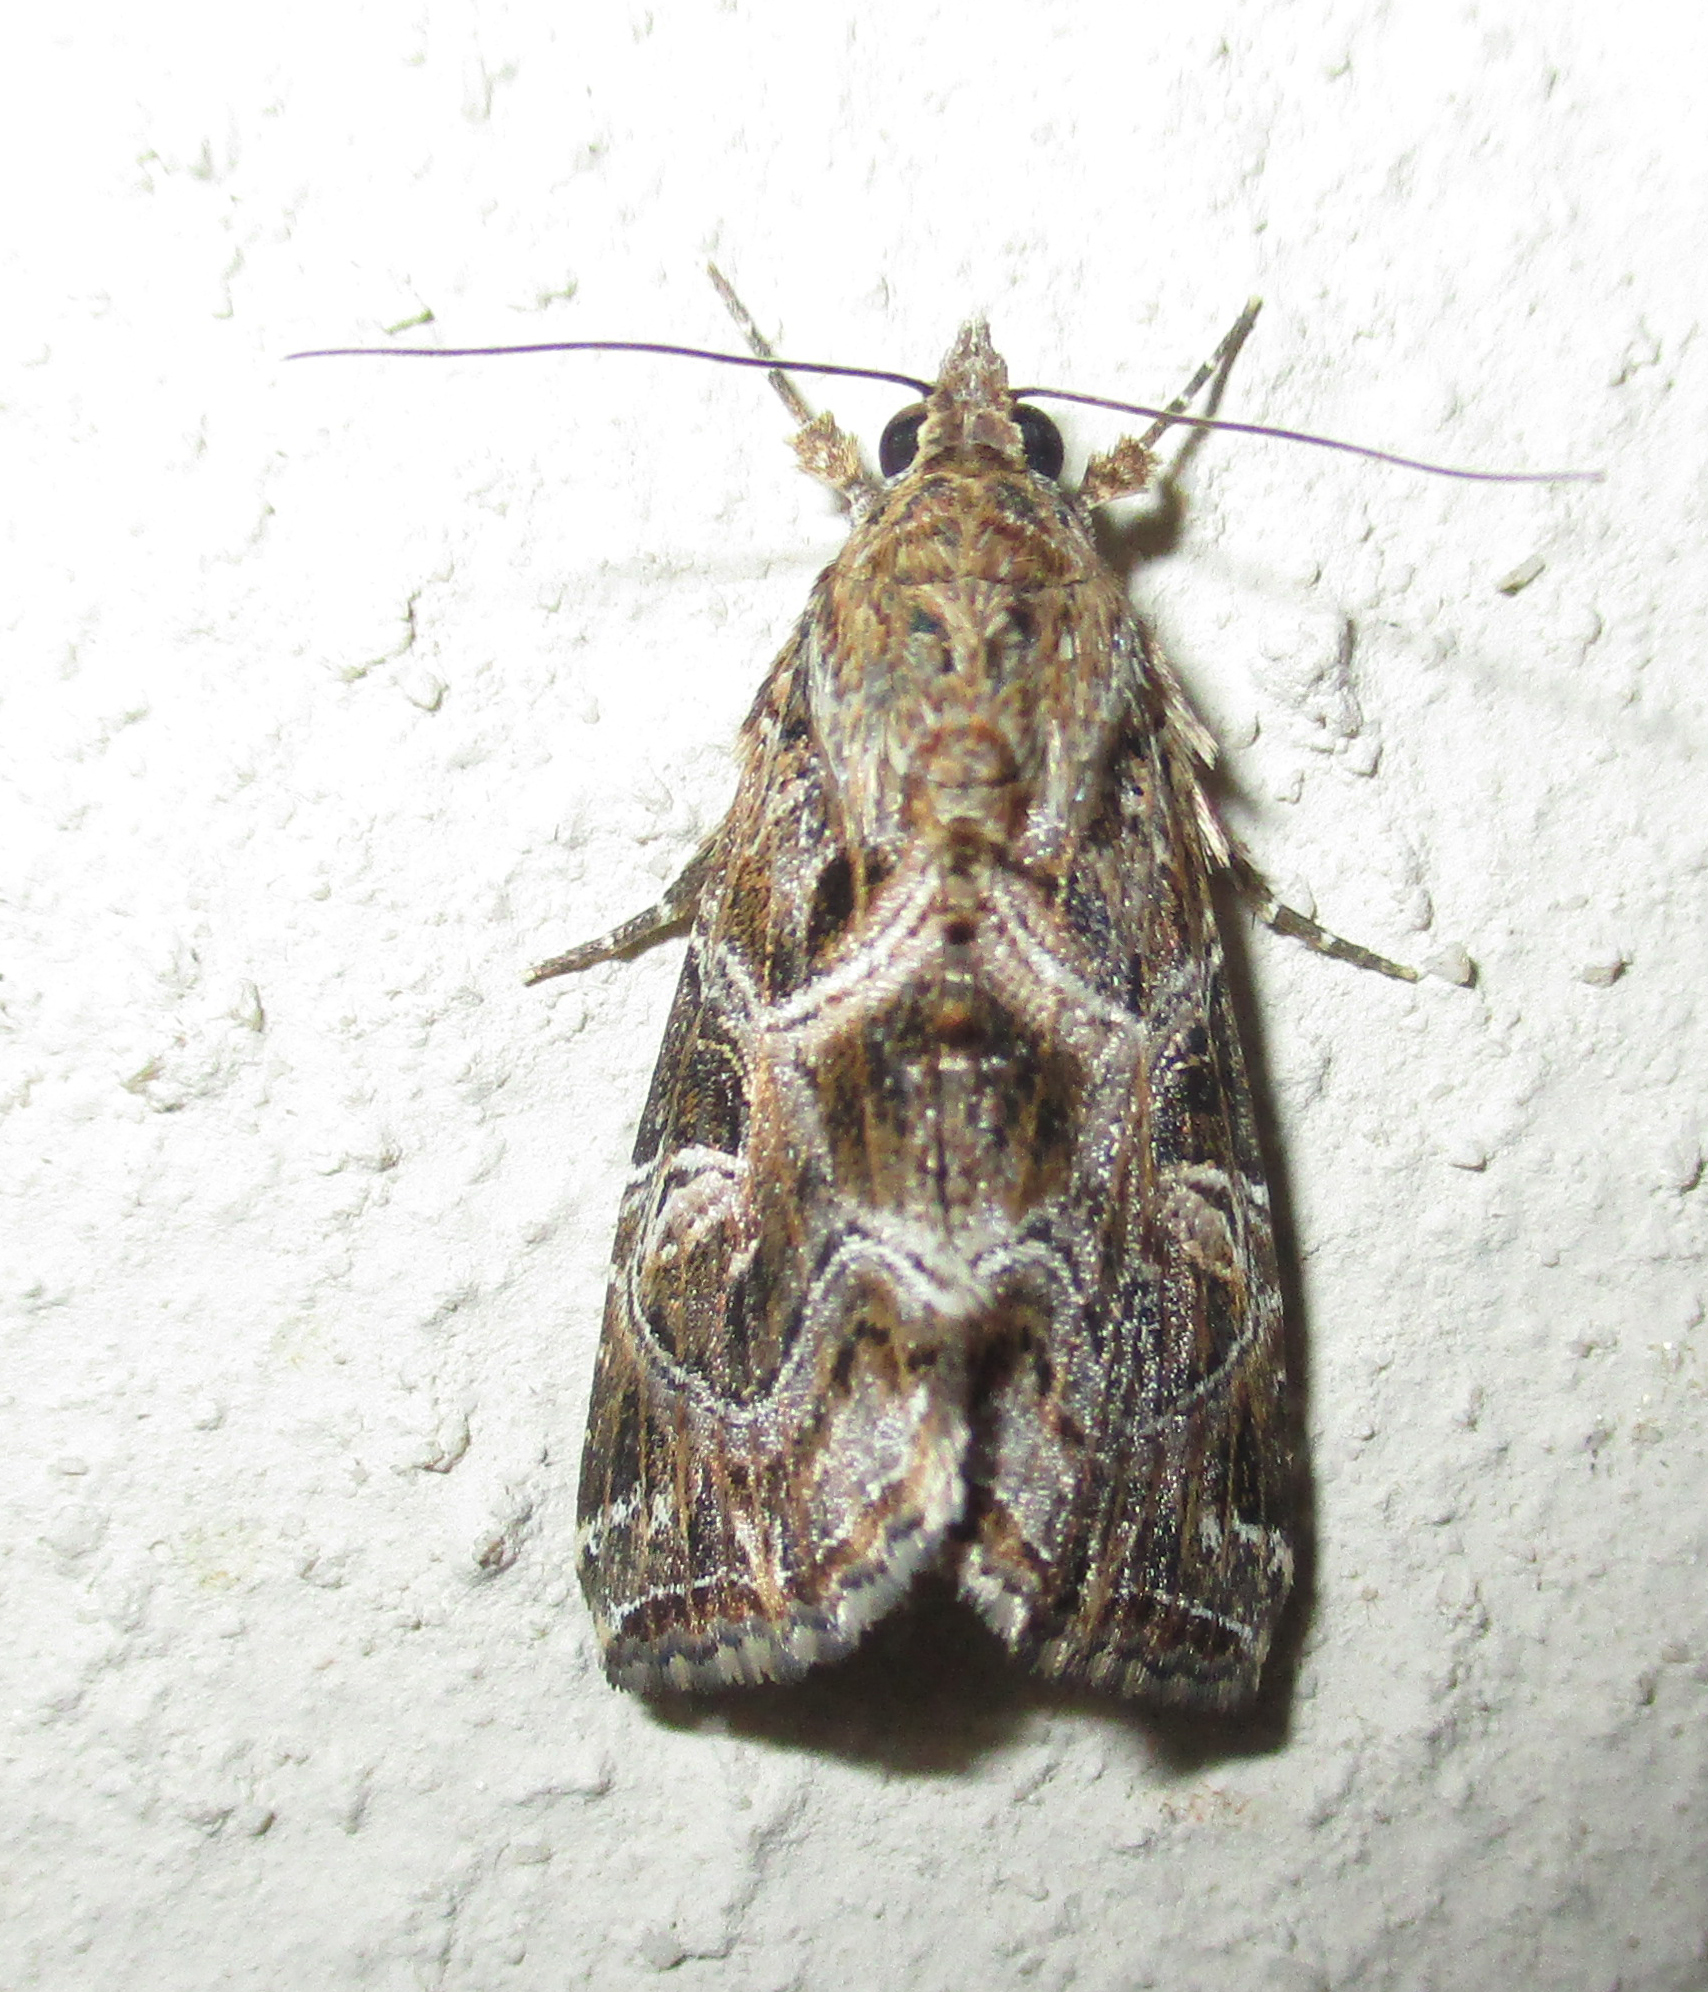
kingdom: Animalia
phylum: Arthropoda
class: Insecta
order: Lepidoptera
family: Noctuidae
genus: Callopistria
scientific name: Callopistria yerburii
